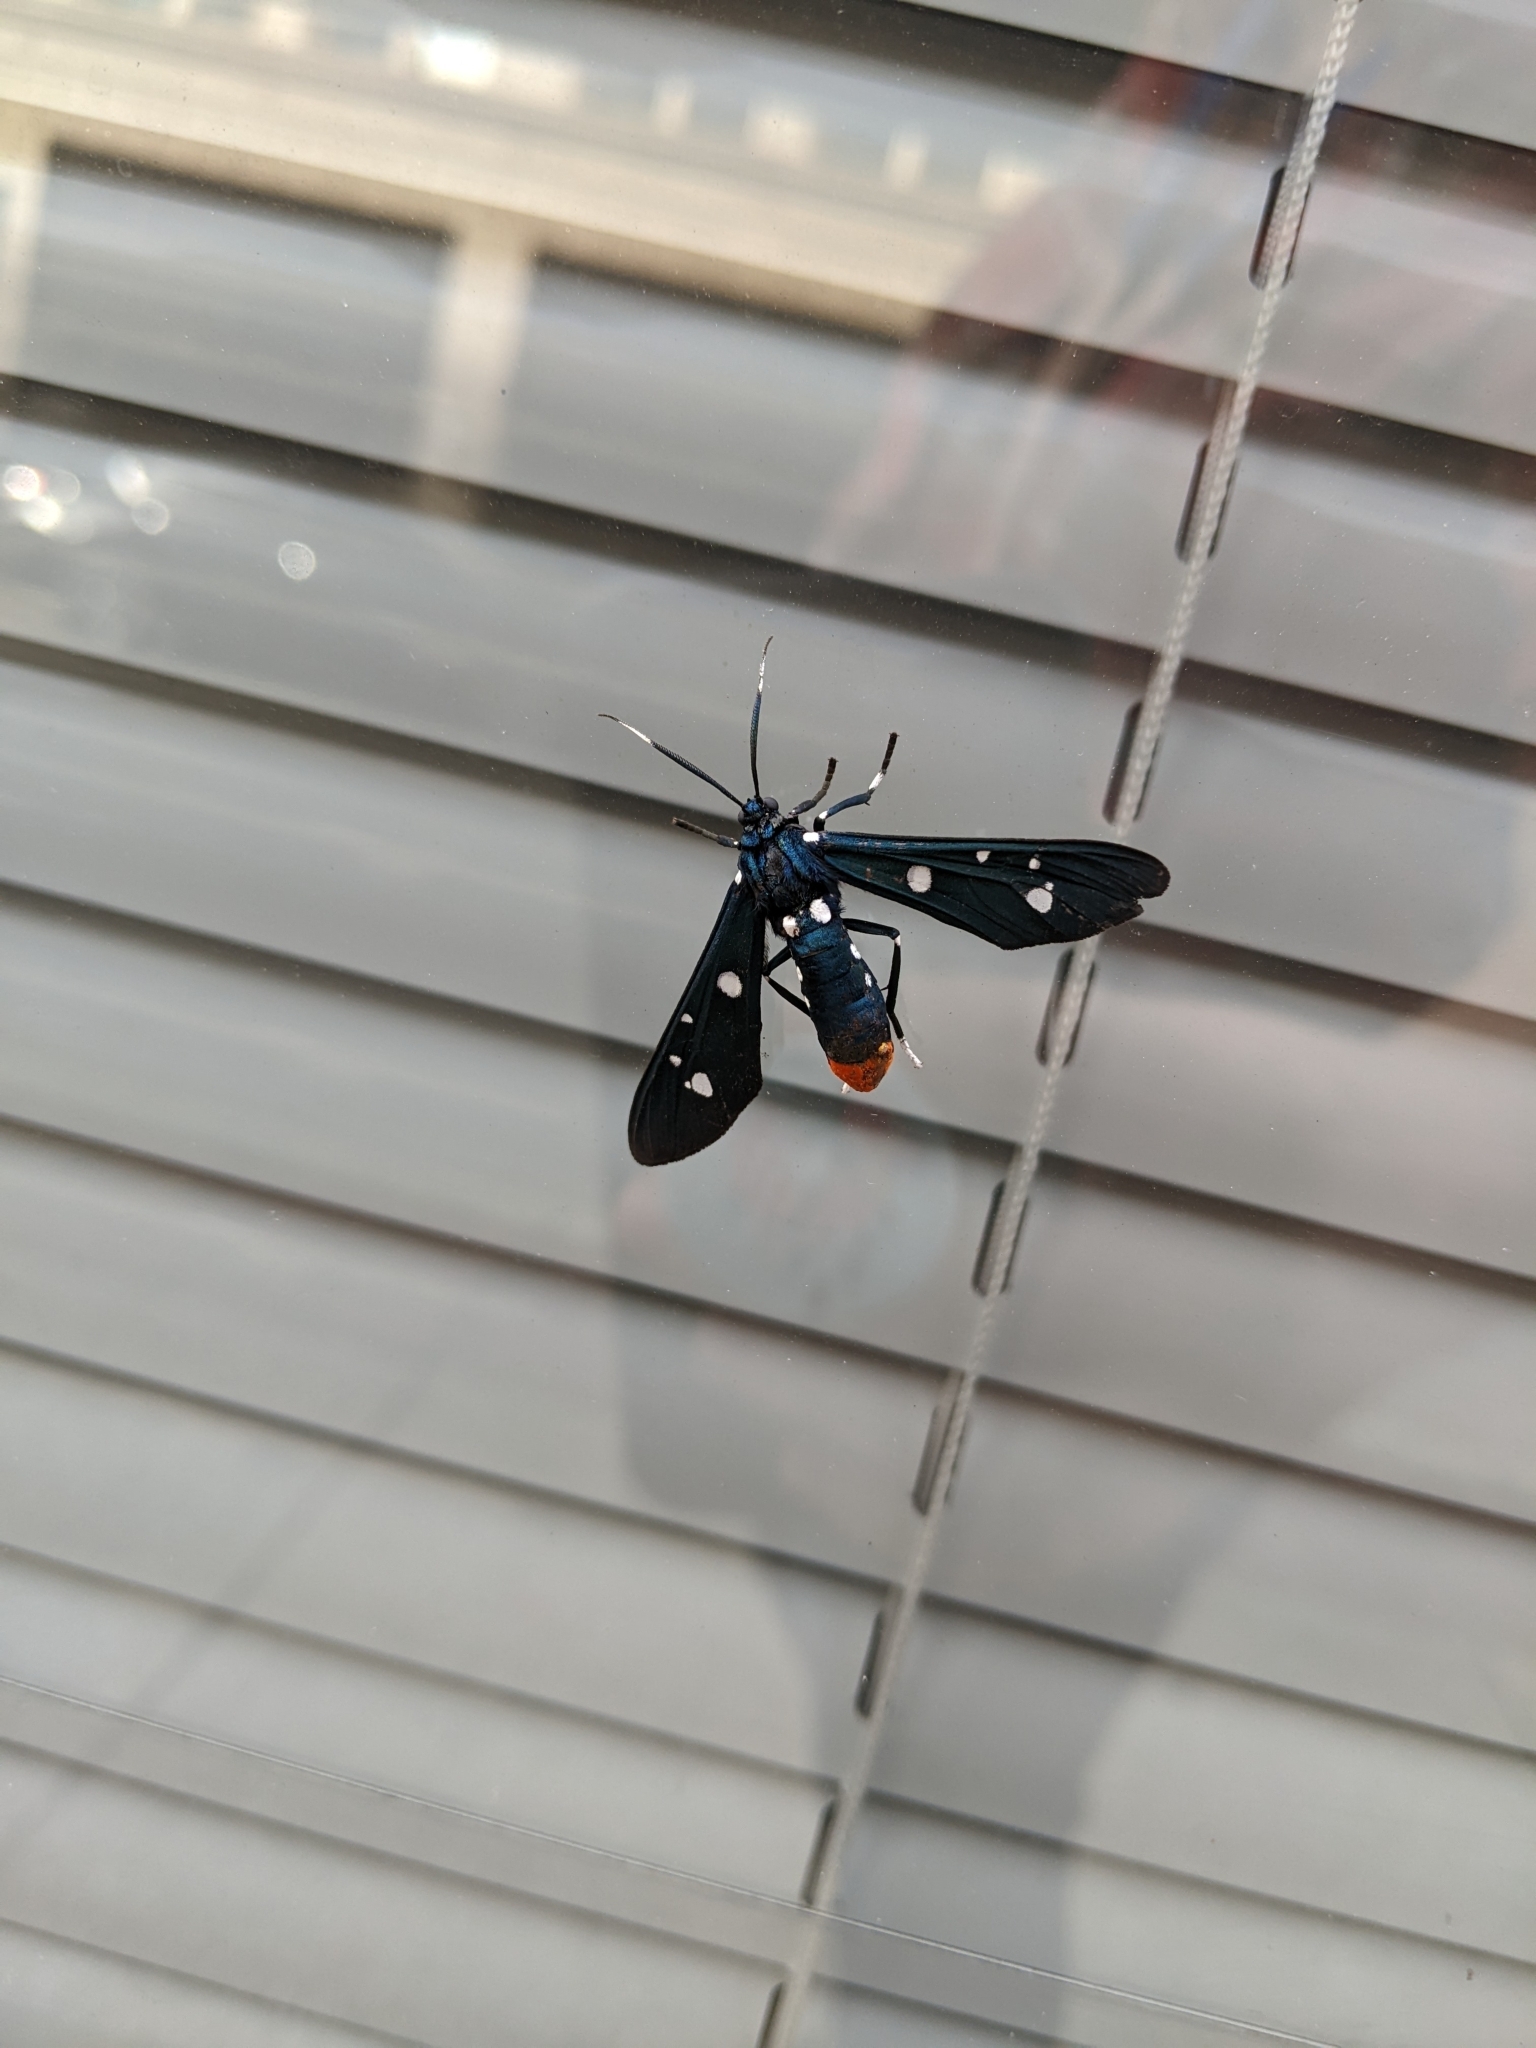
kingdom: Animalia
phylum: Arthropoda
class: Insecta
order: Lepidoptera
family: Erebidae
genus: Syntomeida
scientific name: Syntomeida epilais
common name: Polka-dot wasp moth
